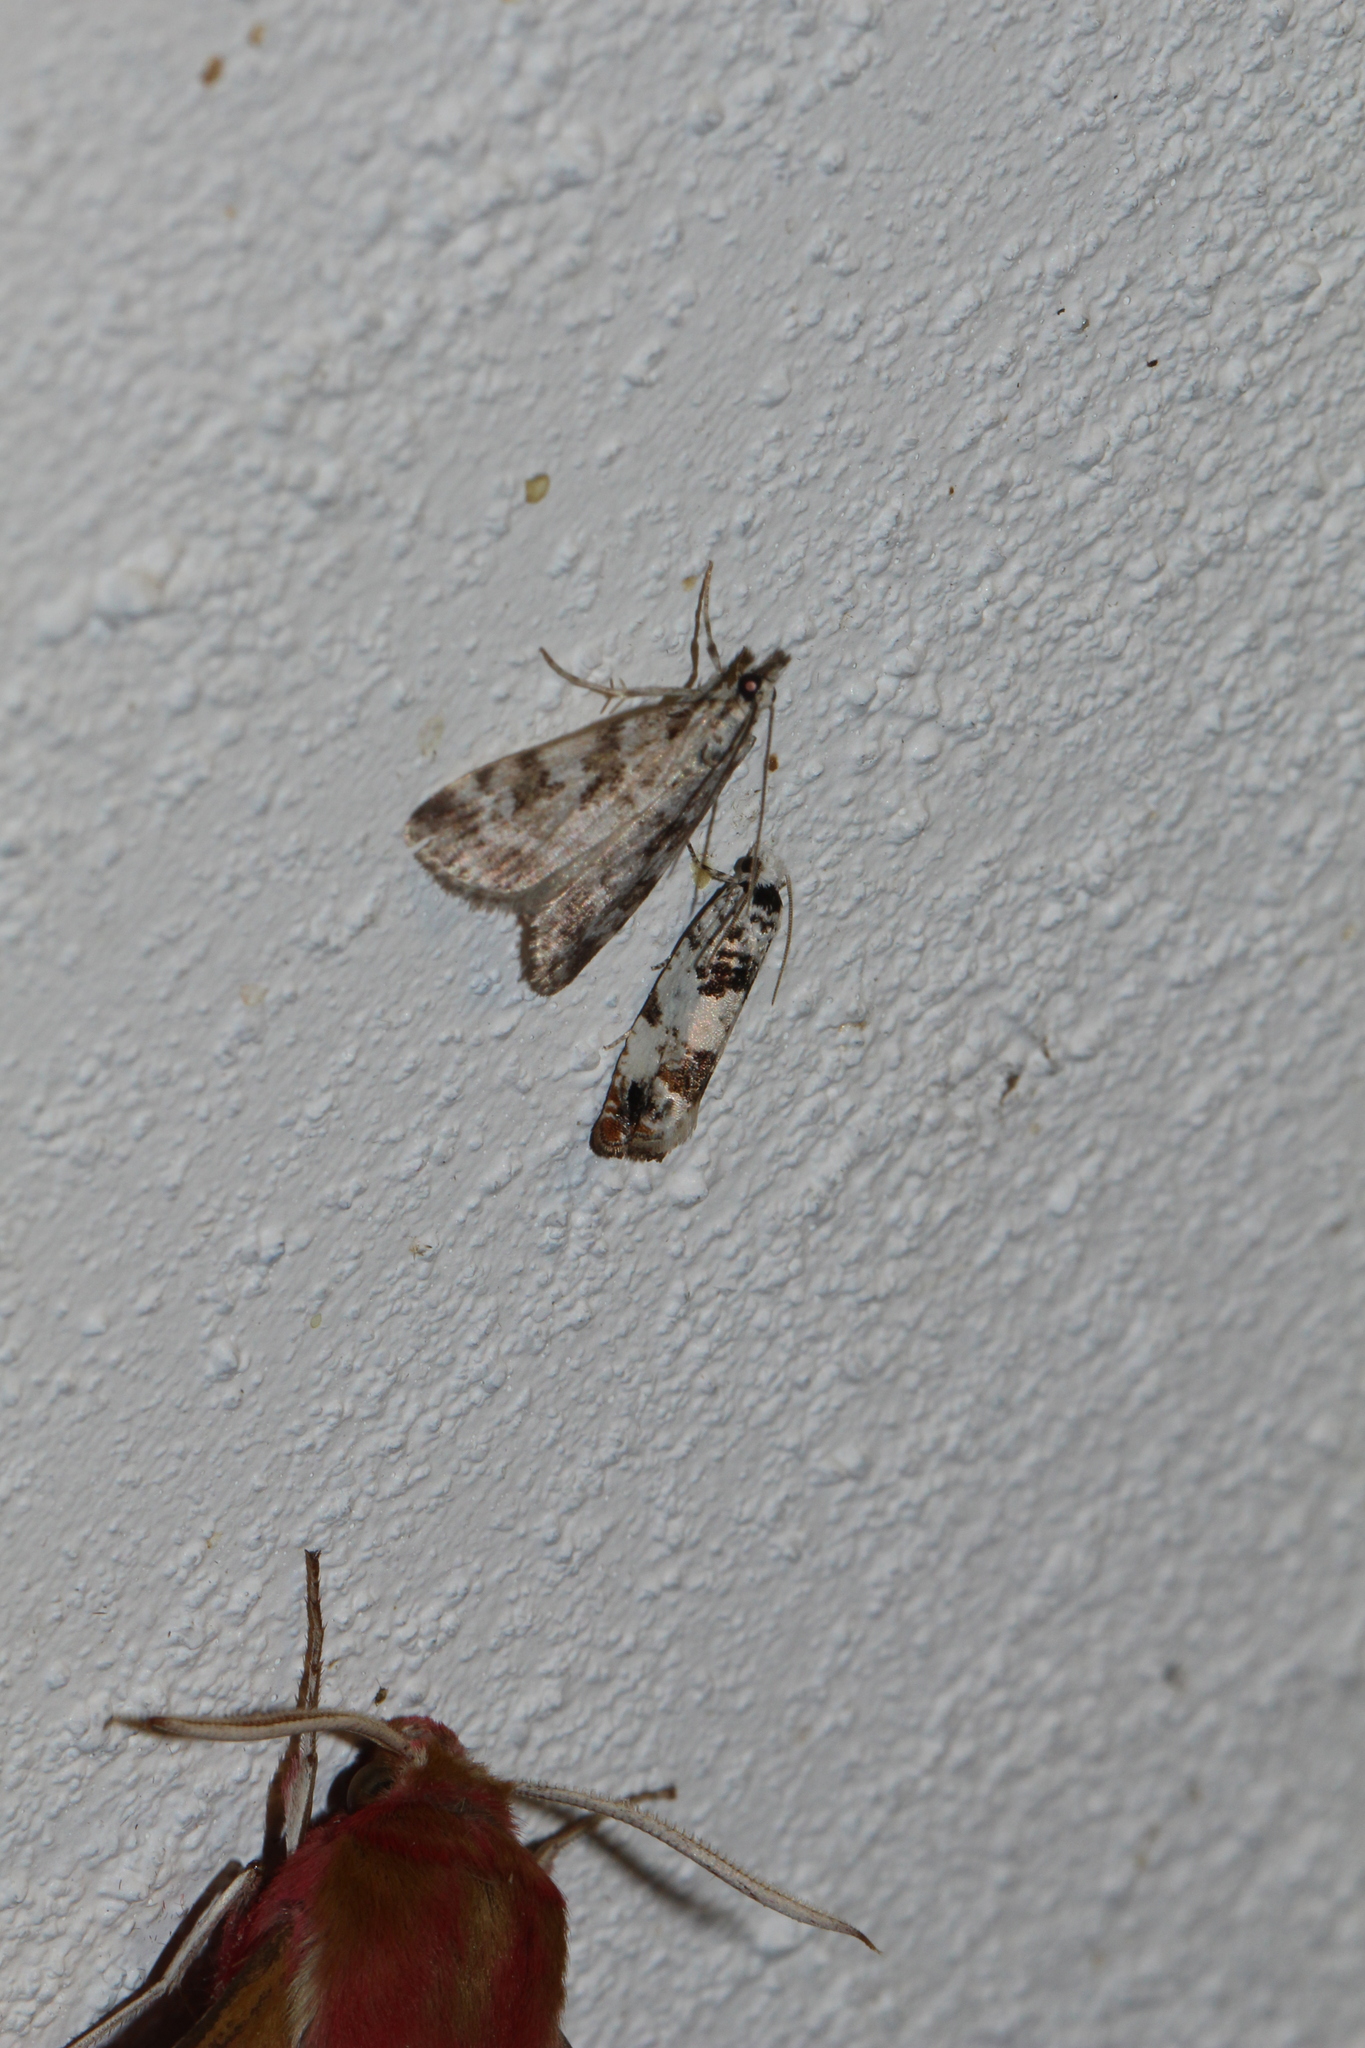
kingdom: Animalia
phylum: Arthropoda
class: Insecta
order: Lepidoptera
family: Crambidae
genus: Scoparia
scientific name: Scoparia pyralella
